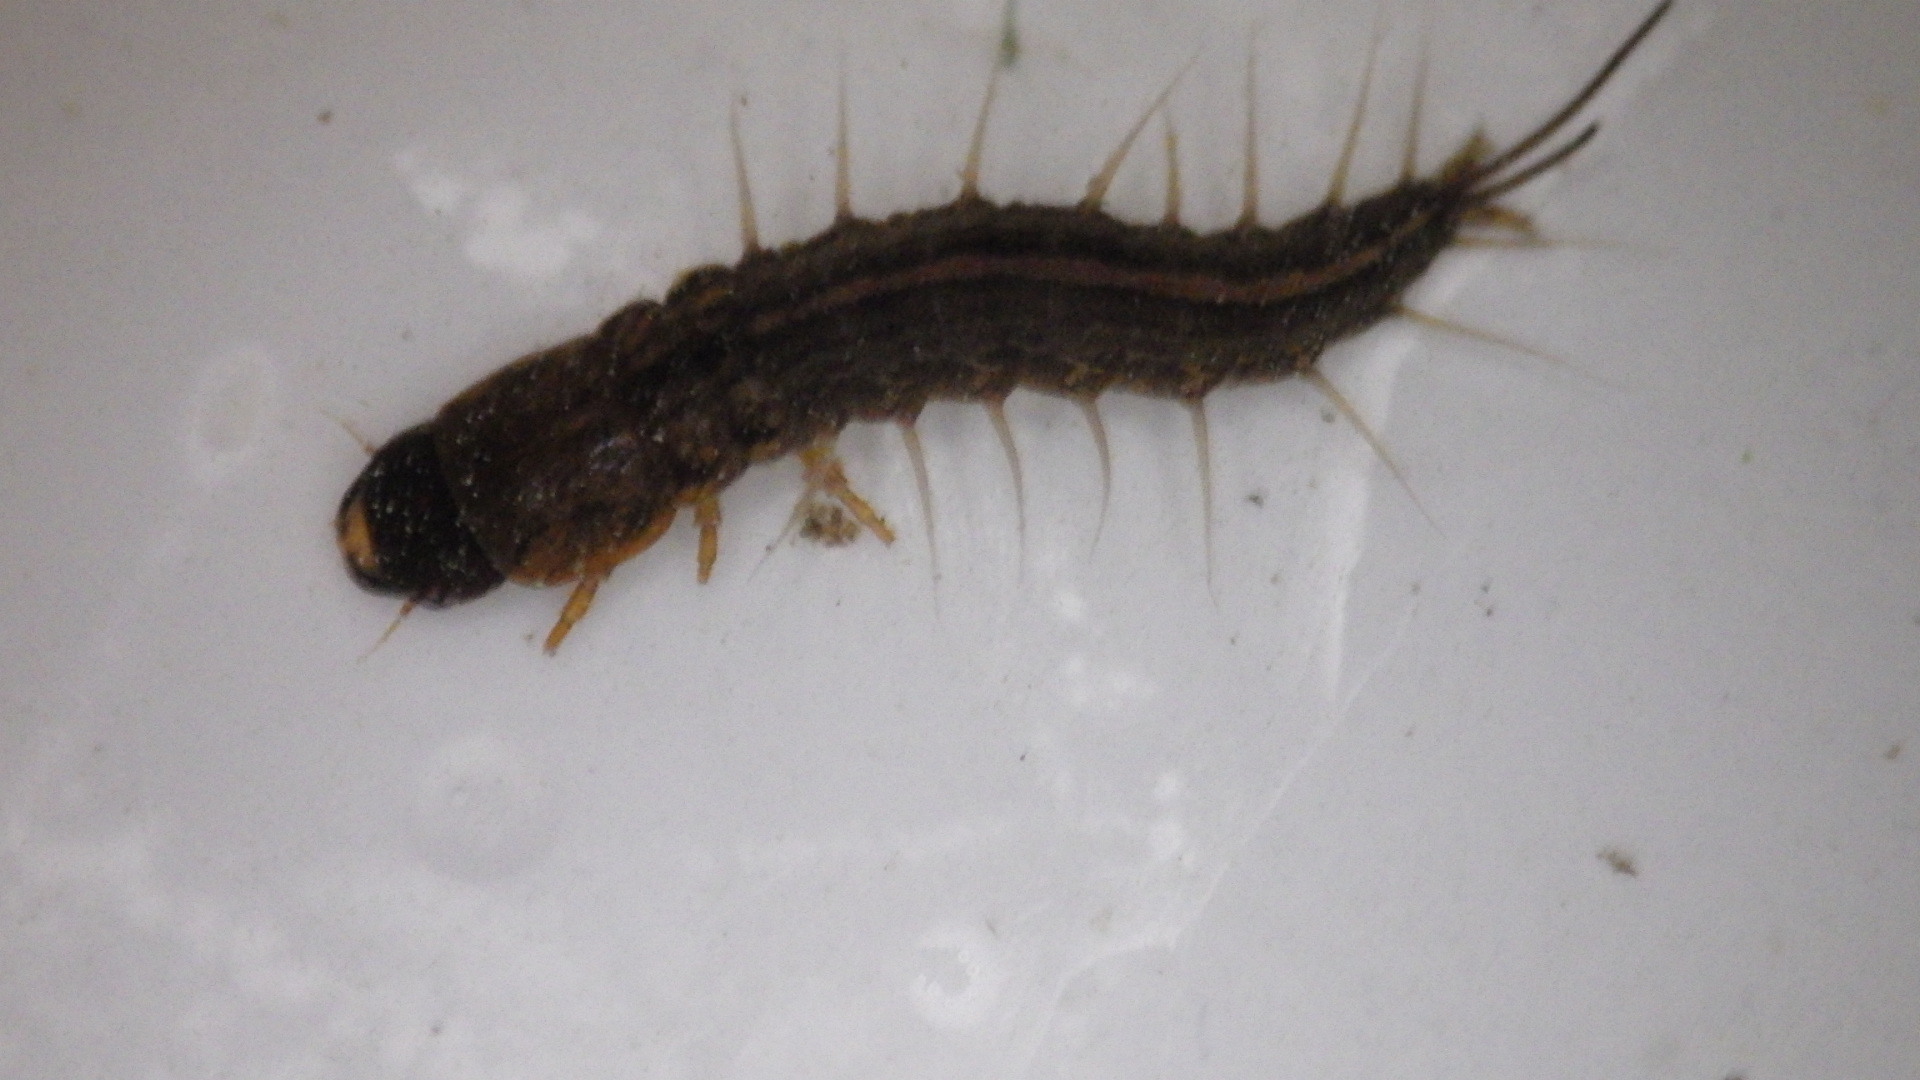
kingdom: Animalia
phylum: Arthropoda
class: Insecta
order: Megaloptera
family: Corydalidae
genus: Chauliodes
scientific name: Chauliodes pectinicornis
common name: Summer fishfly
